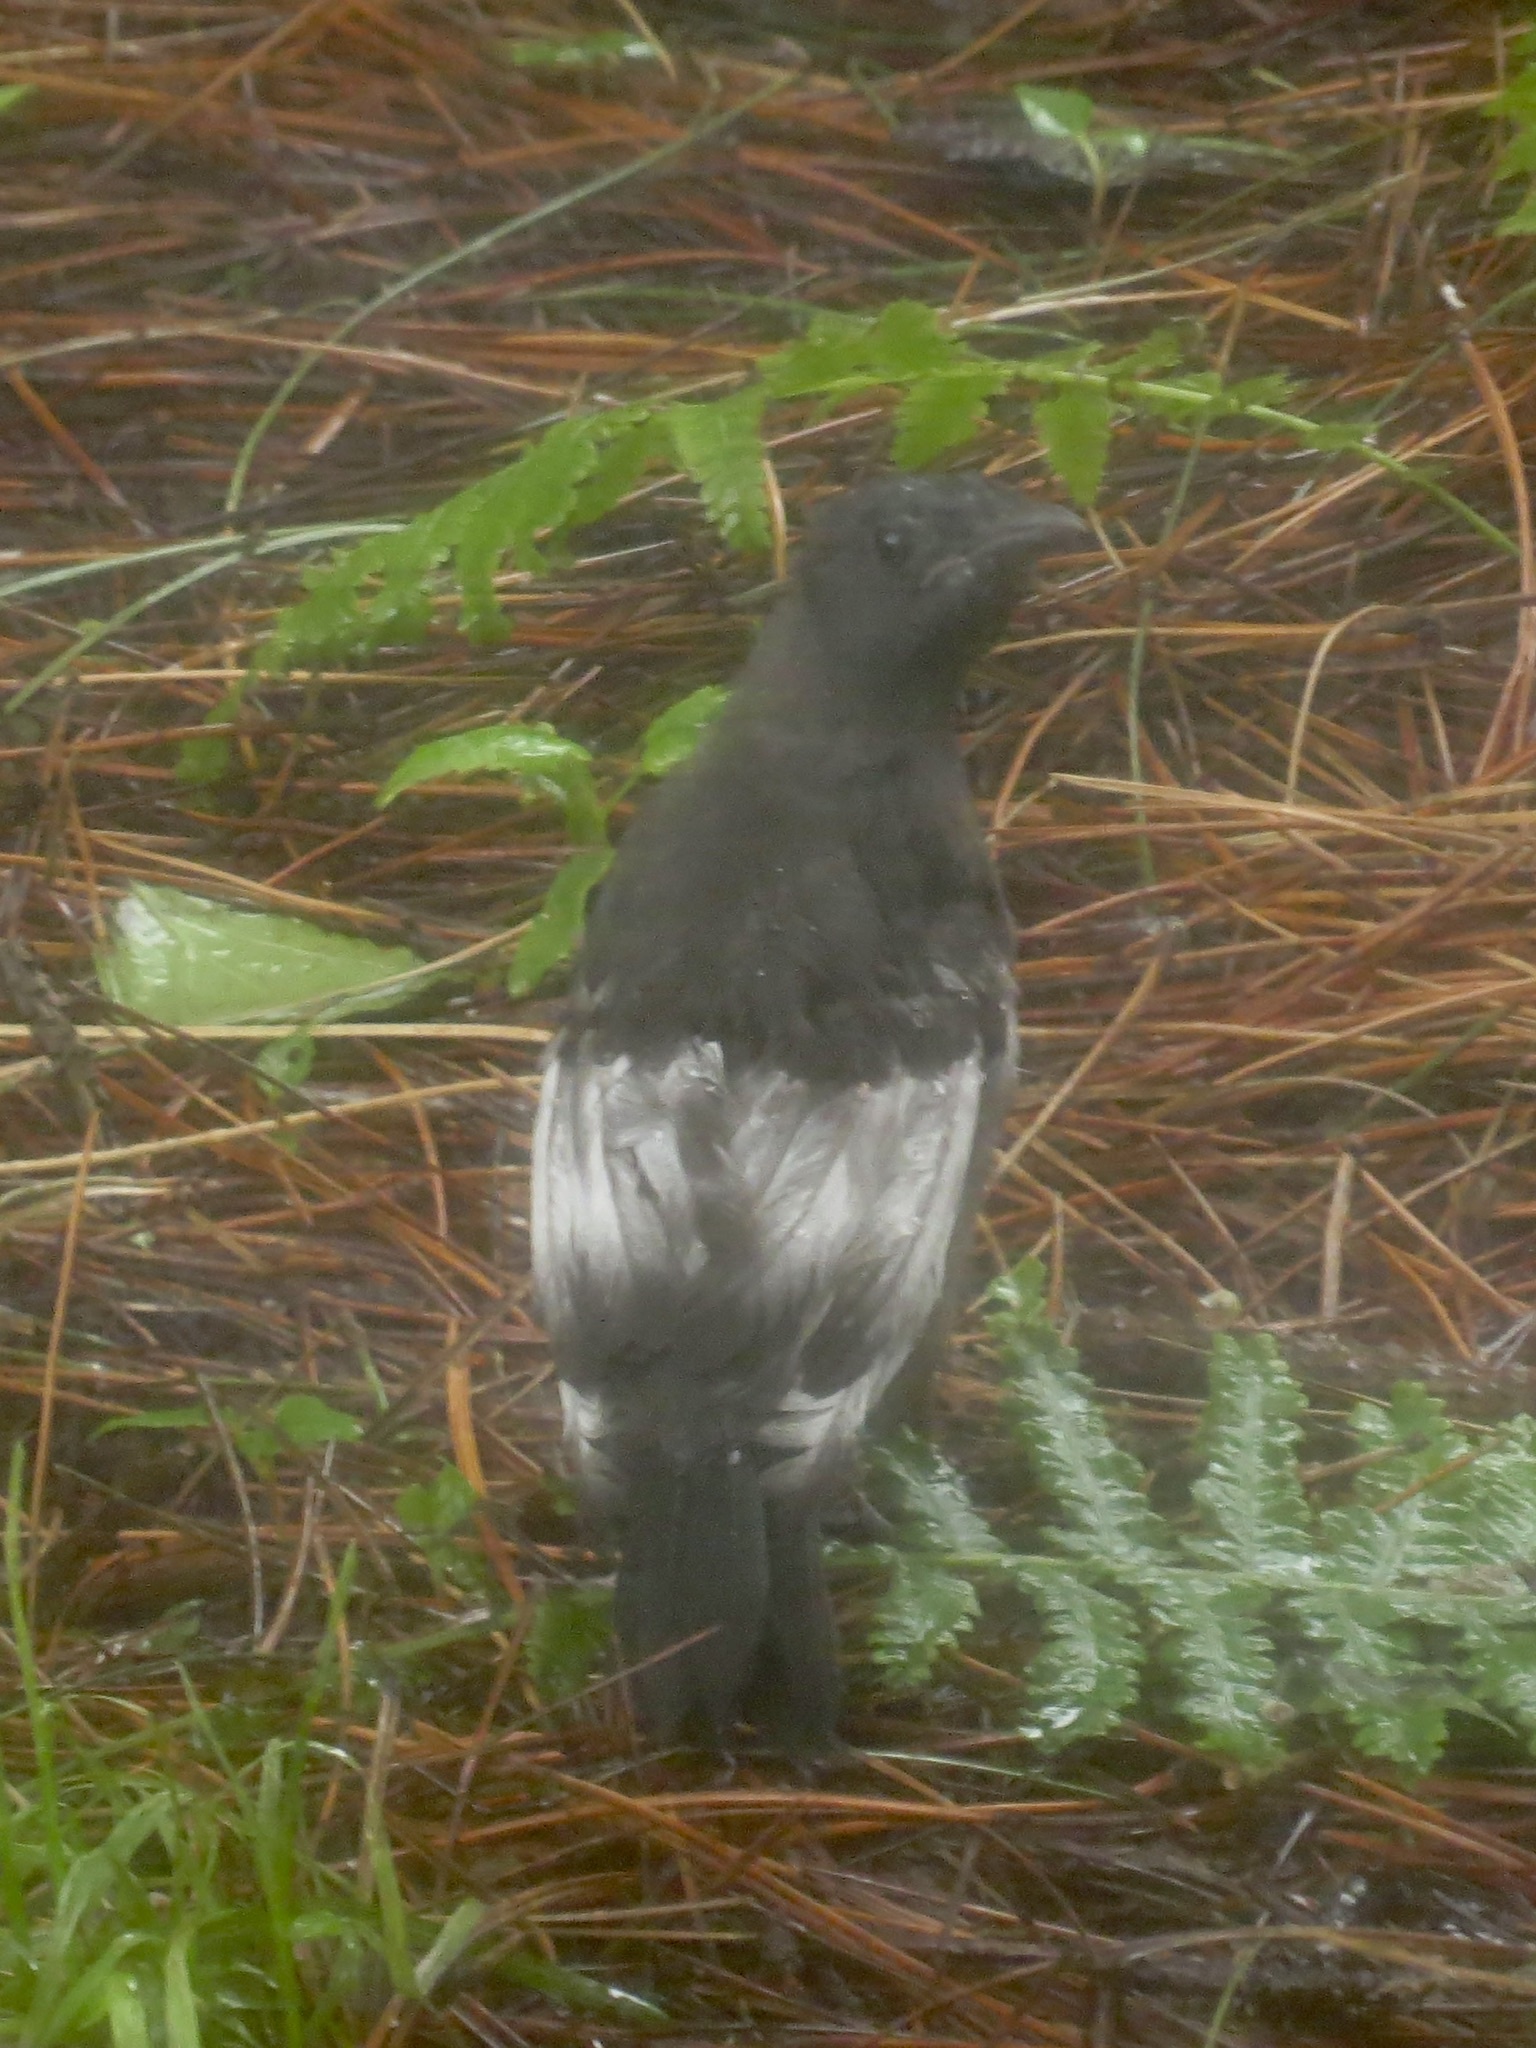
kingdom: Animalia
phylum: Chordata
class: Aves
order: Passeriformes
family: Icteridae
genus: Quiscalus
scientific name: Quiscalus quiscula
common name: Common grackle
